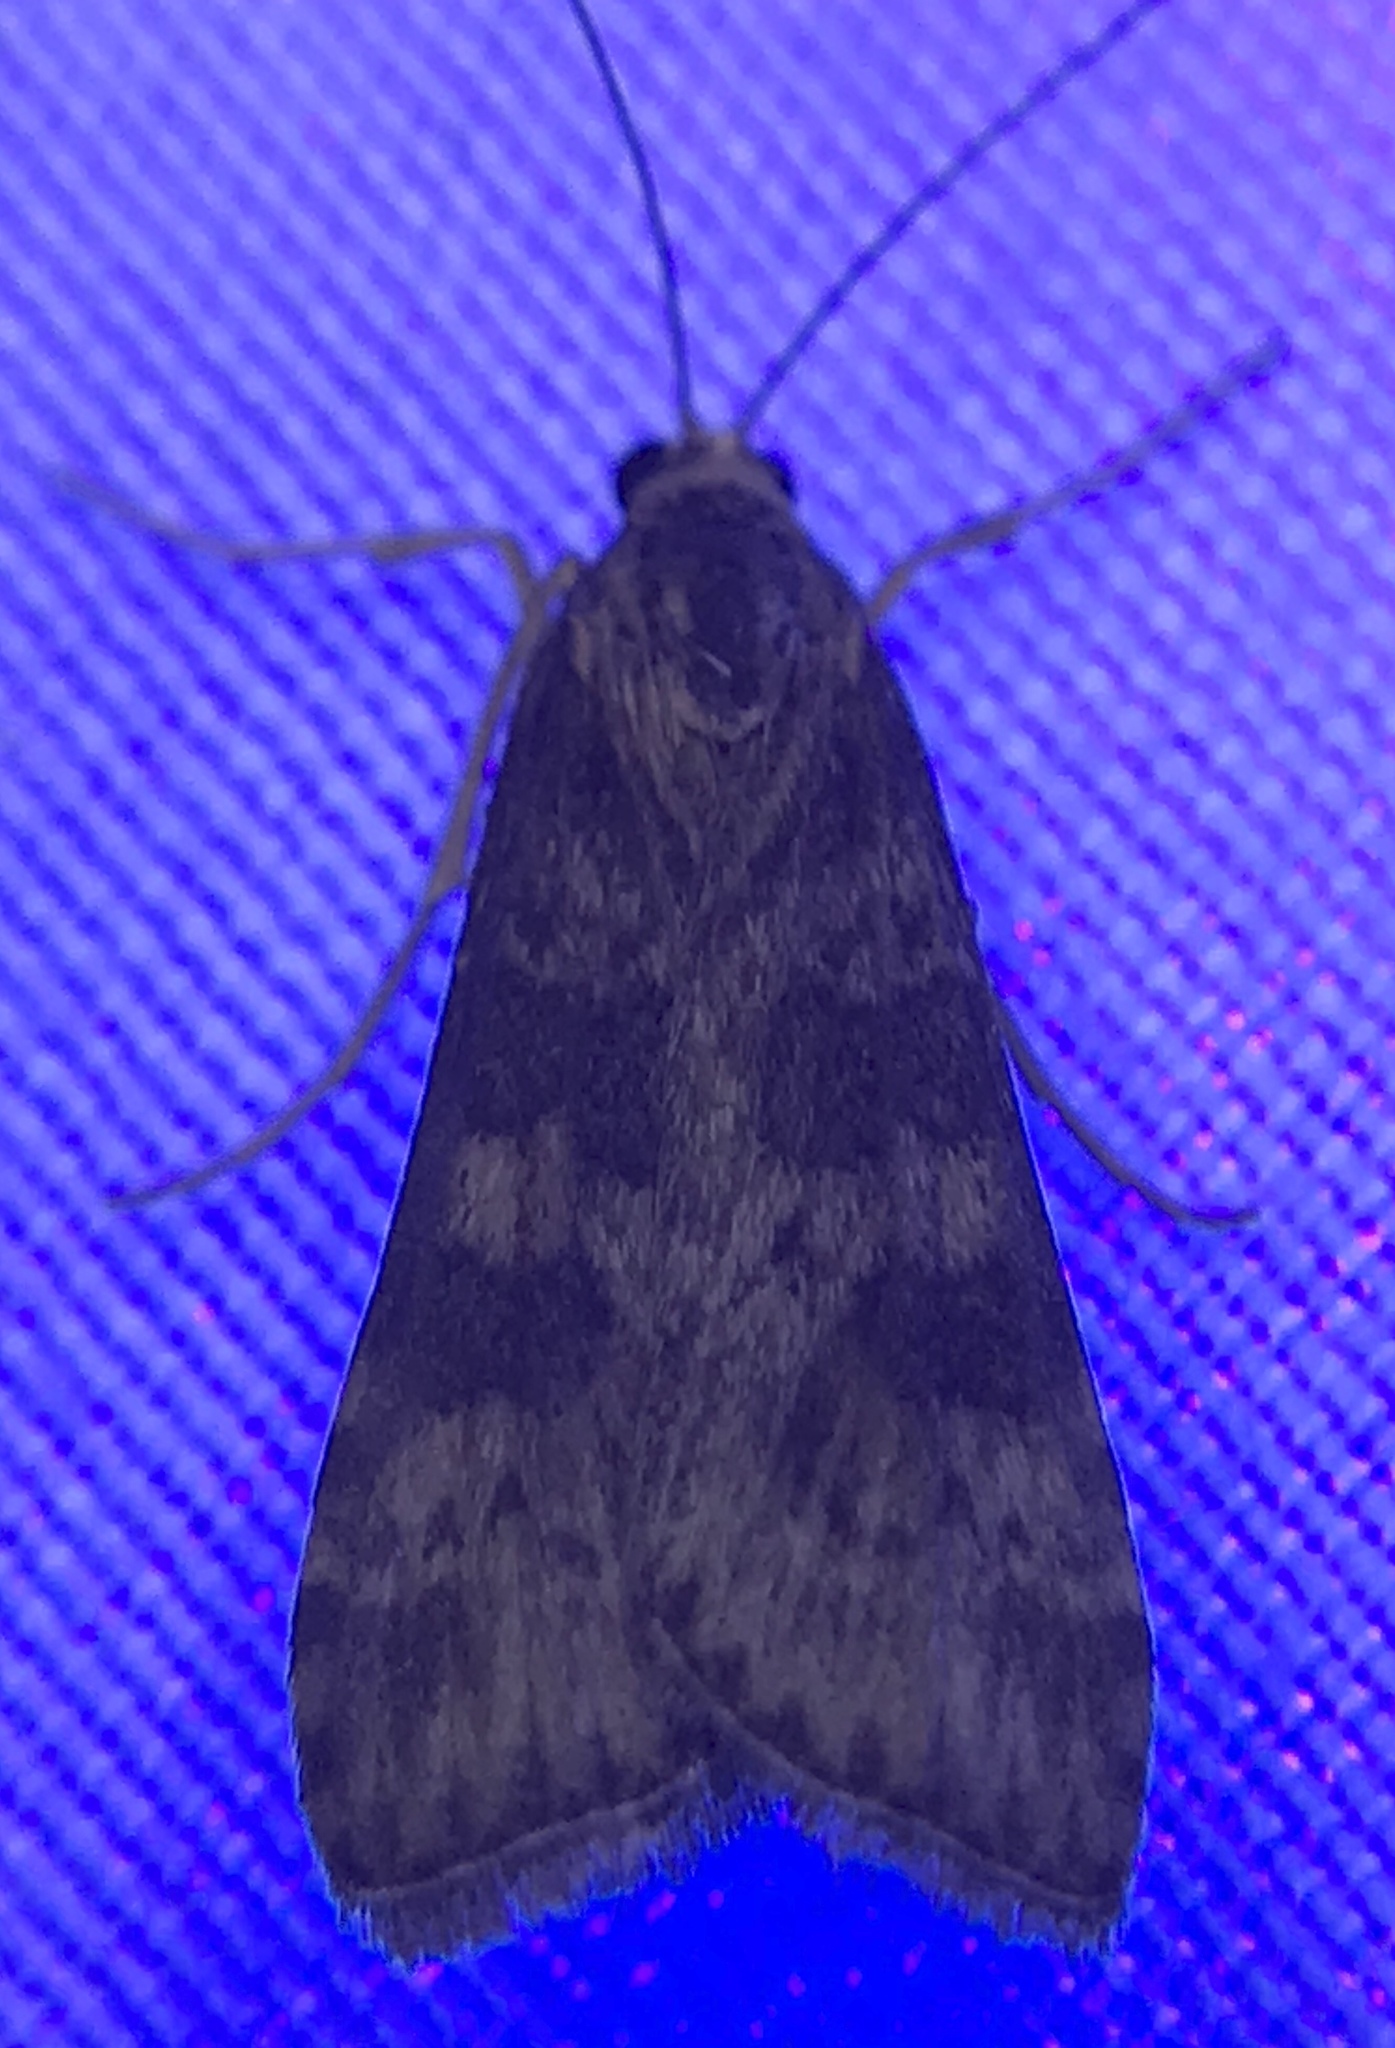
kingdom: Animalia
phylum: Arthropoda
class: Insecta
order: Lepidoptera
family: Crambidae
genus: Nomophila
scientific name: Nomophila nearctica
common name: American rush veneer
